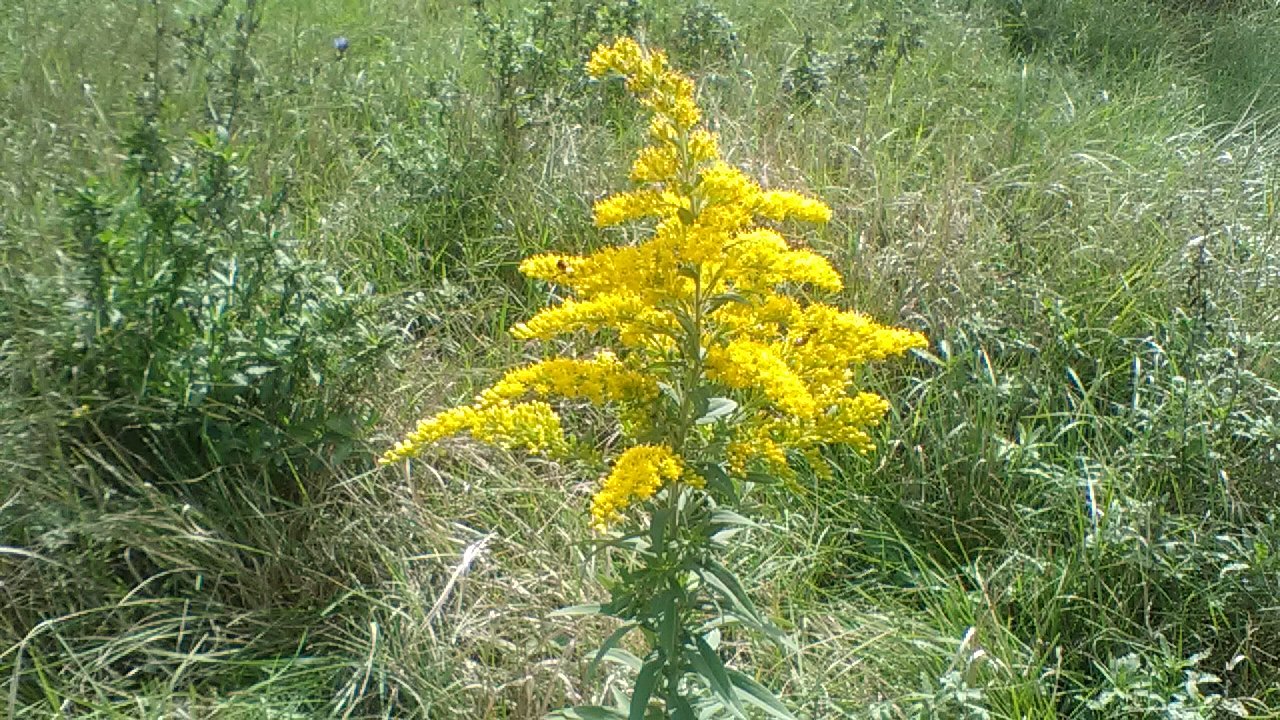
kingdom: Plantae
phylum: Tracheophyta
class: Magnoliopsida
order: Asterales
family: Asteraceae
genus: Solidago
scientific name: Solidago canadensis
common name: Canada goldenrod
